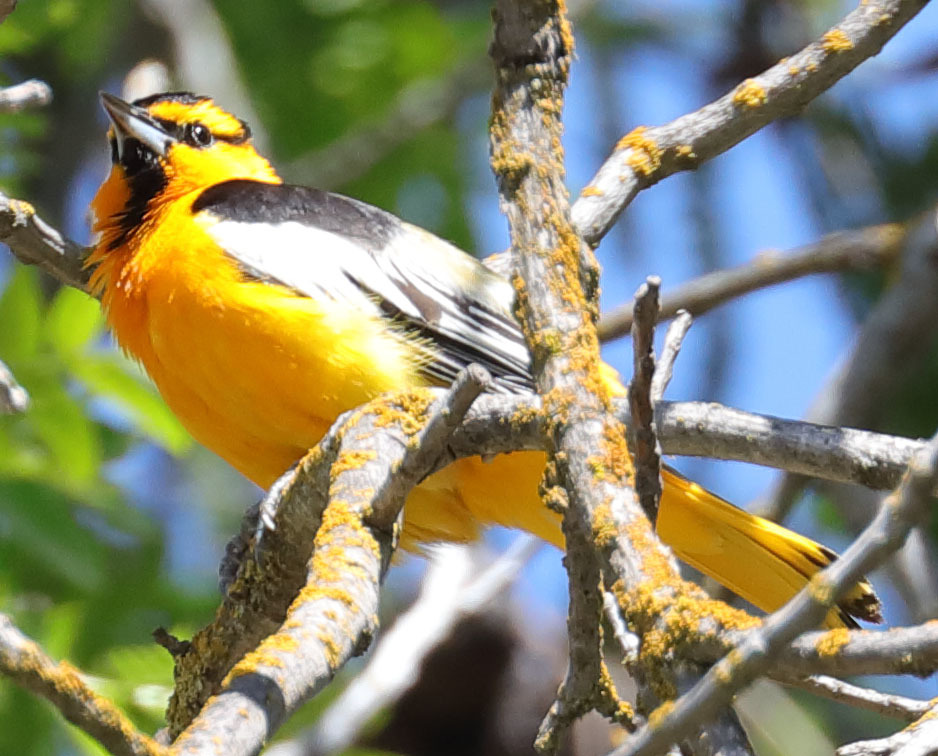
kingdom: Animalia
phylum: Chordata
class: Aves
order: Passeriformes
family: Icteridae
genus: Icterus
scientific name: Icterus bullockii
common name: Bullock's oriole
